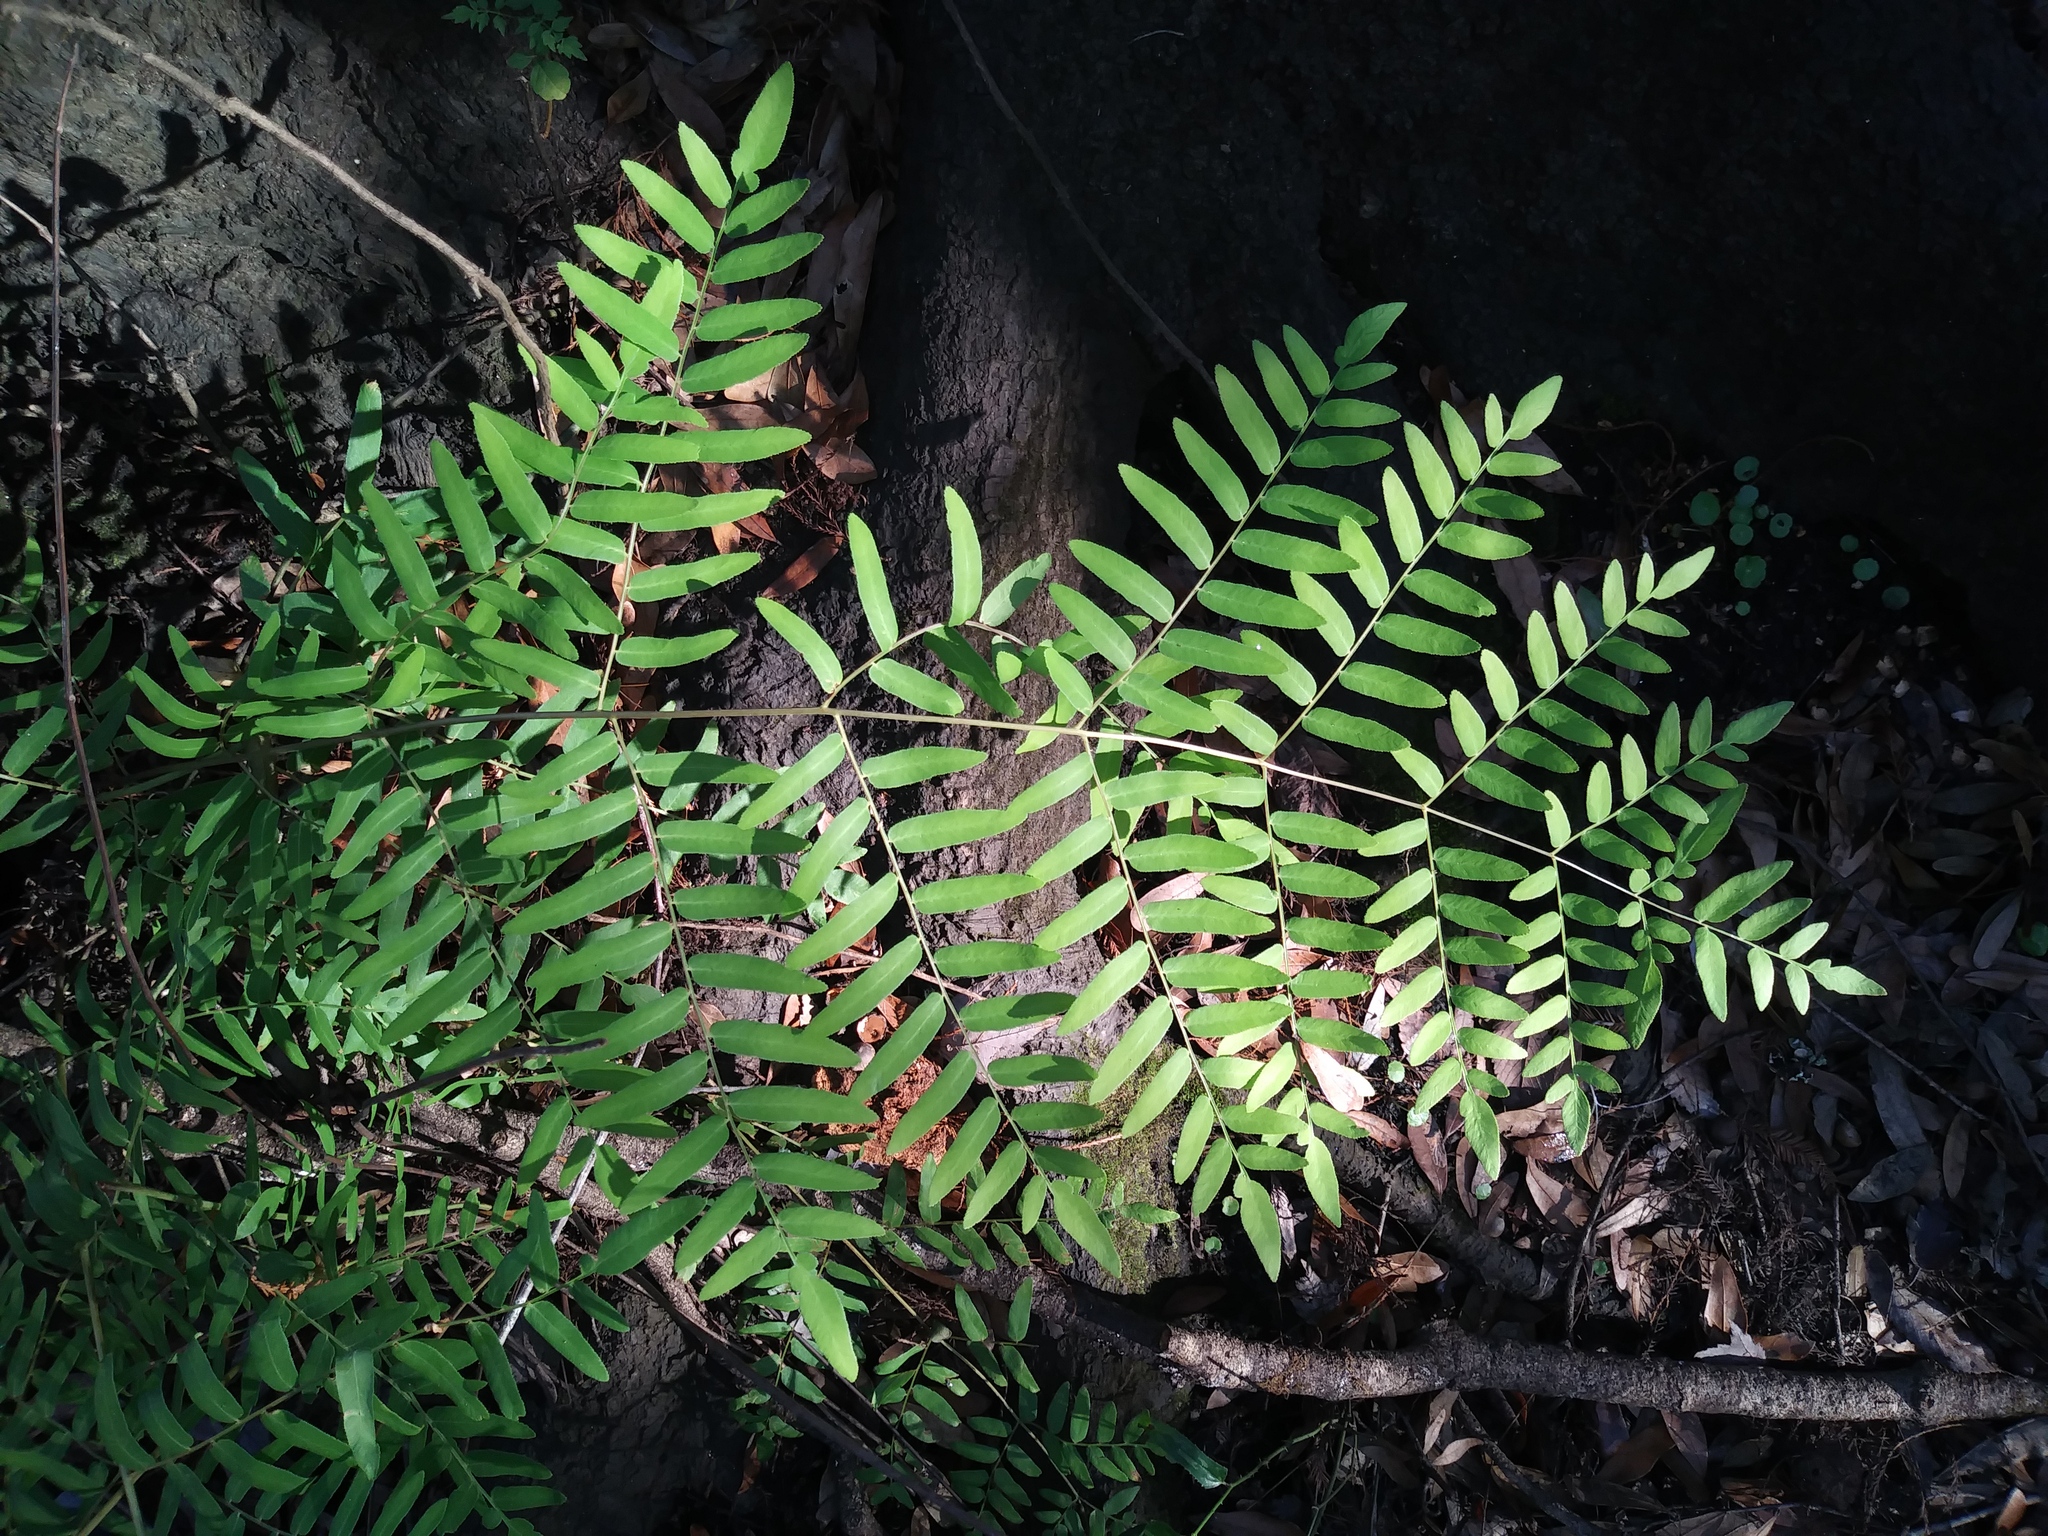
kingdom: Plantae
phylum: Tracheophyta
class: Polypodiopsida
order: Osmundales
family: Osmundaceae
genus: Osmunda
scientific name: Osmunda spectabilis
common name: American royal fern
